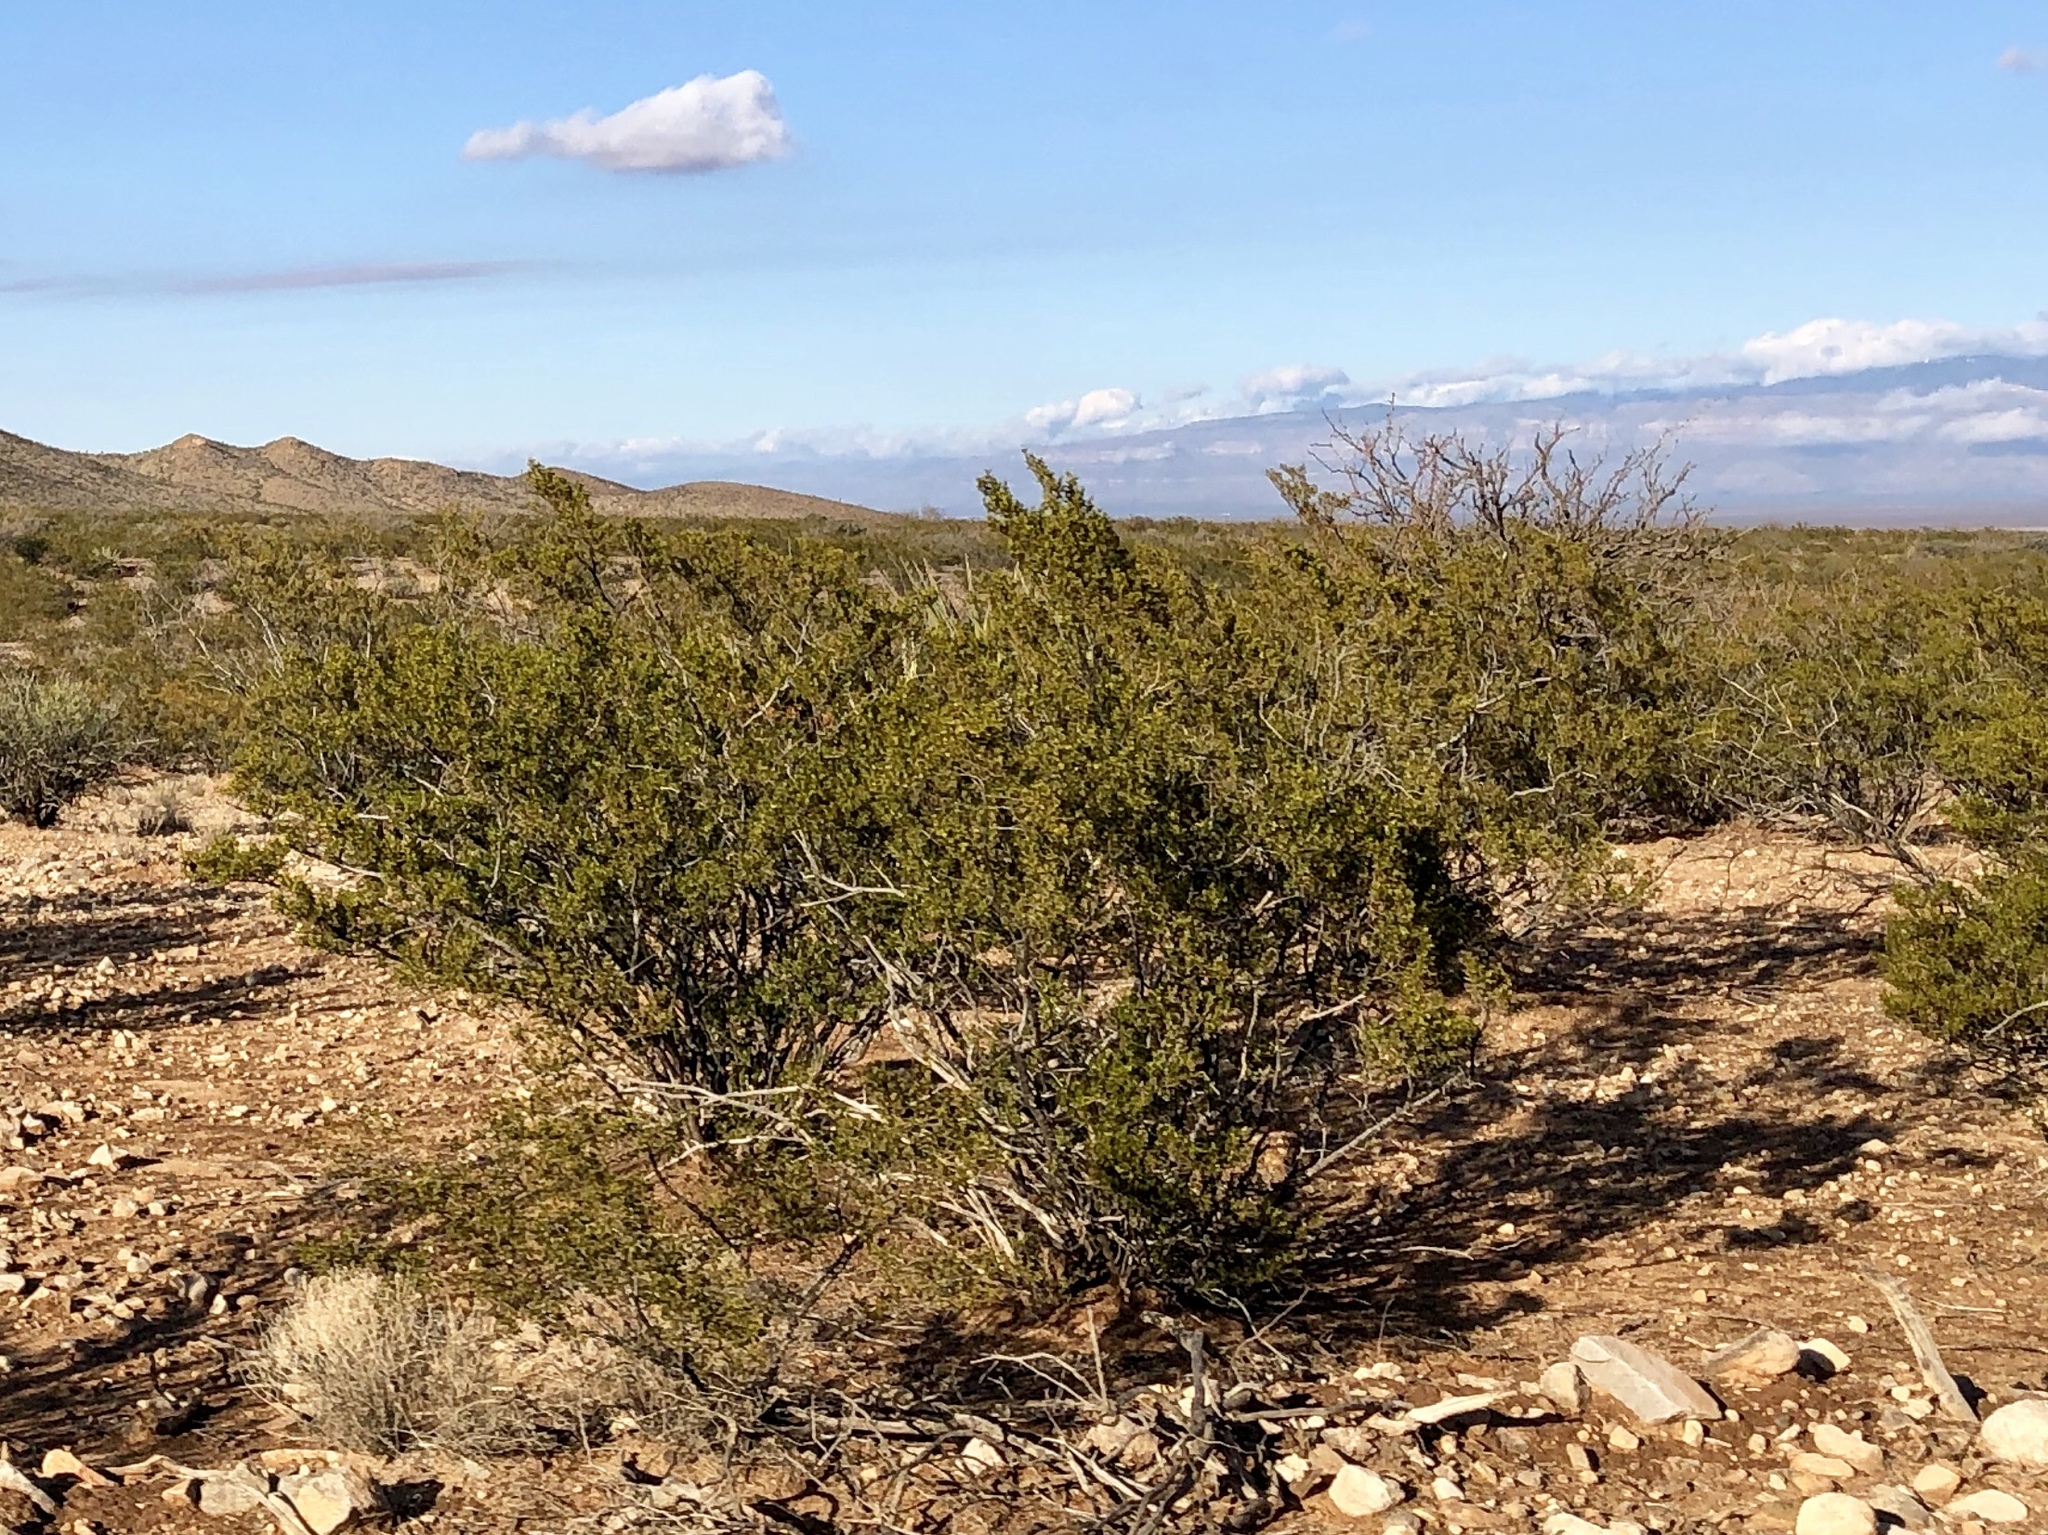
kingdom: Plantae
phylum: Tracheophyta
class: Magnoliopsida
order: Zygophyllales
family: Zygophyllaceae
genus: Larrea
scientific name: Larrea tridentata
